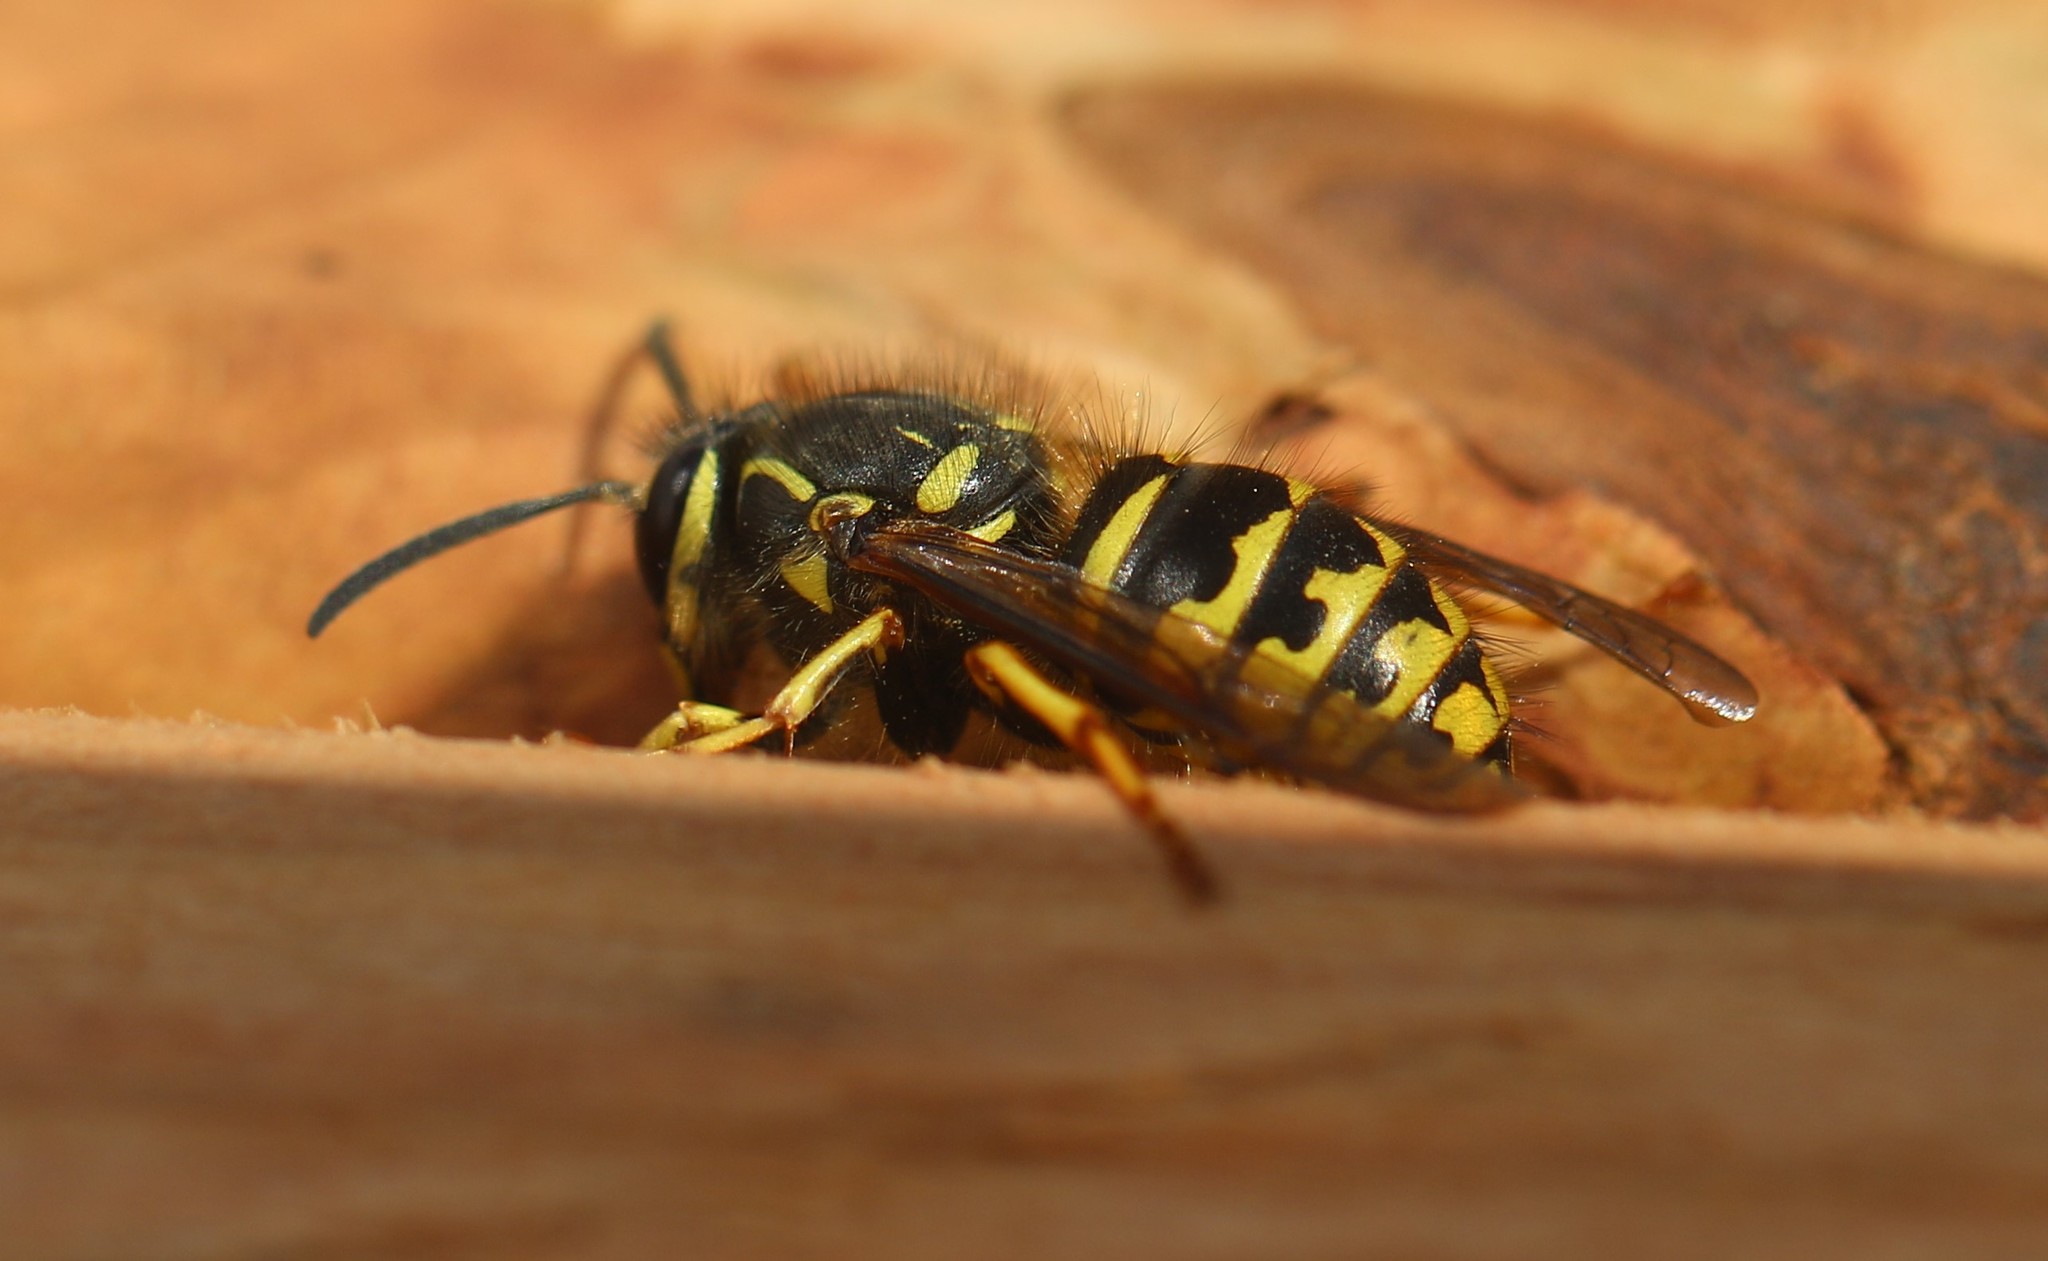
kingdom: Animalia
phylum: Arthropoda
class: Insecta
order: Hymenoptera
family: Vespidae
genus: Dolichovespula
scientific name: Dolichovespula arenaria
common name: Aerial yellowjacket
